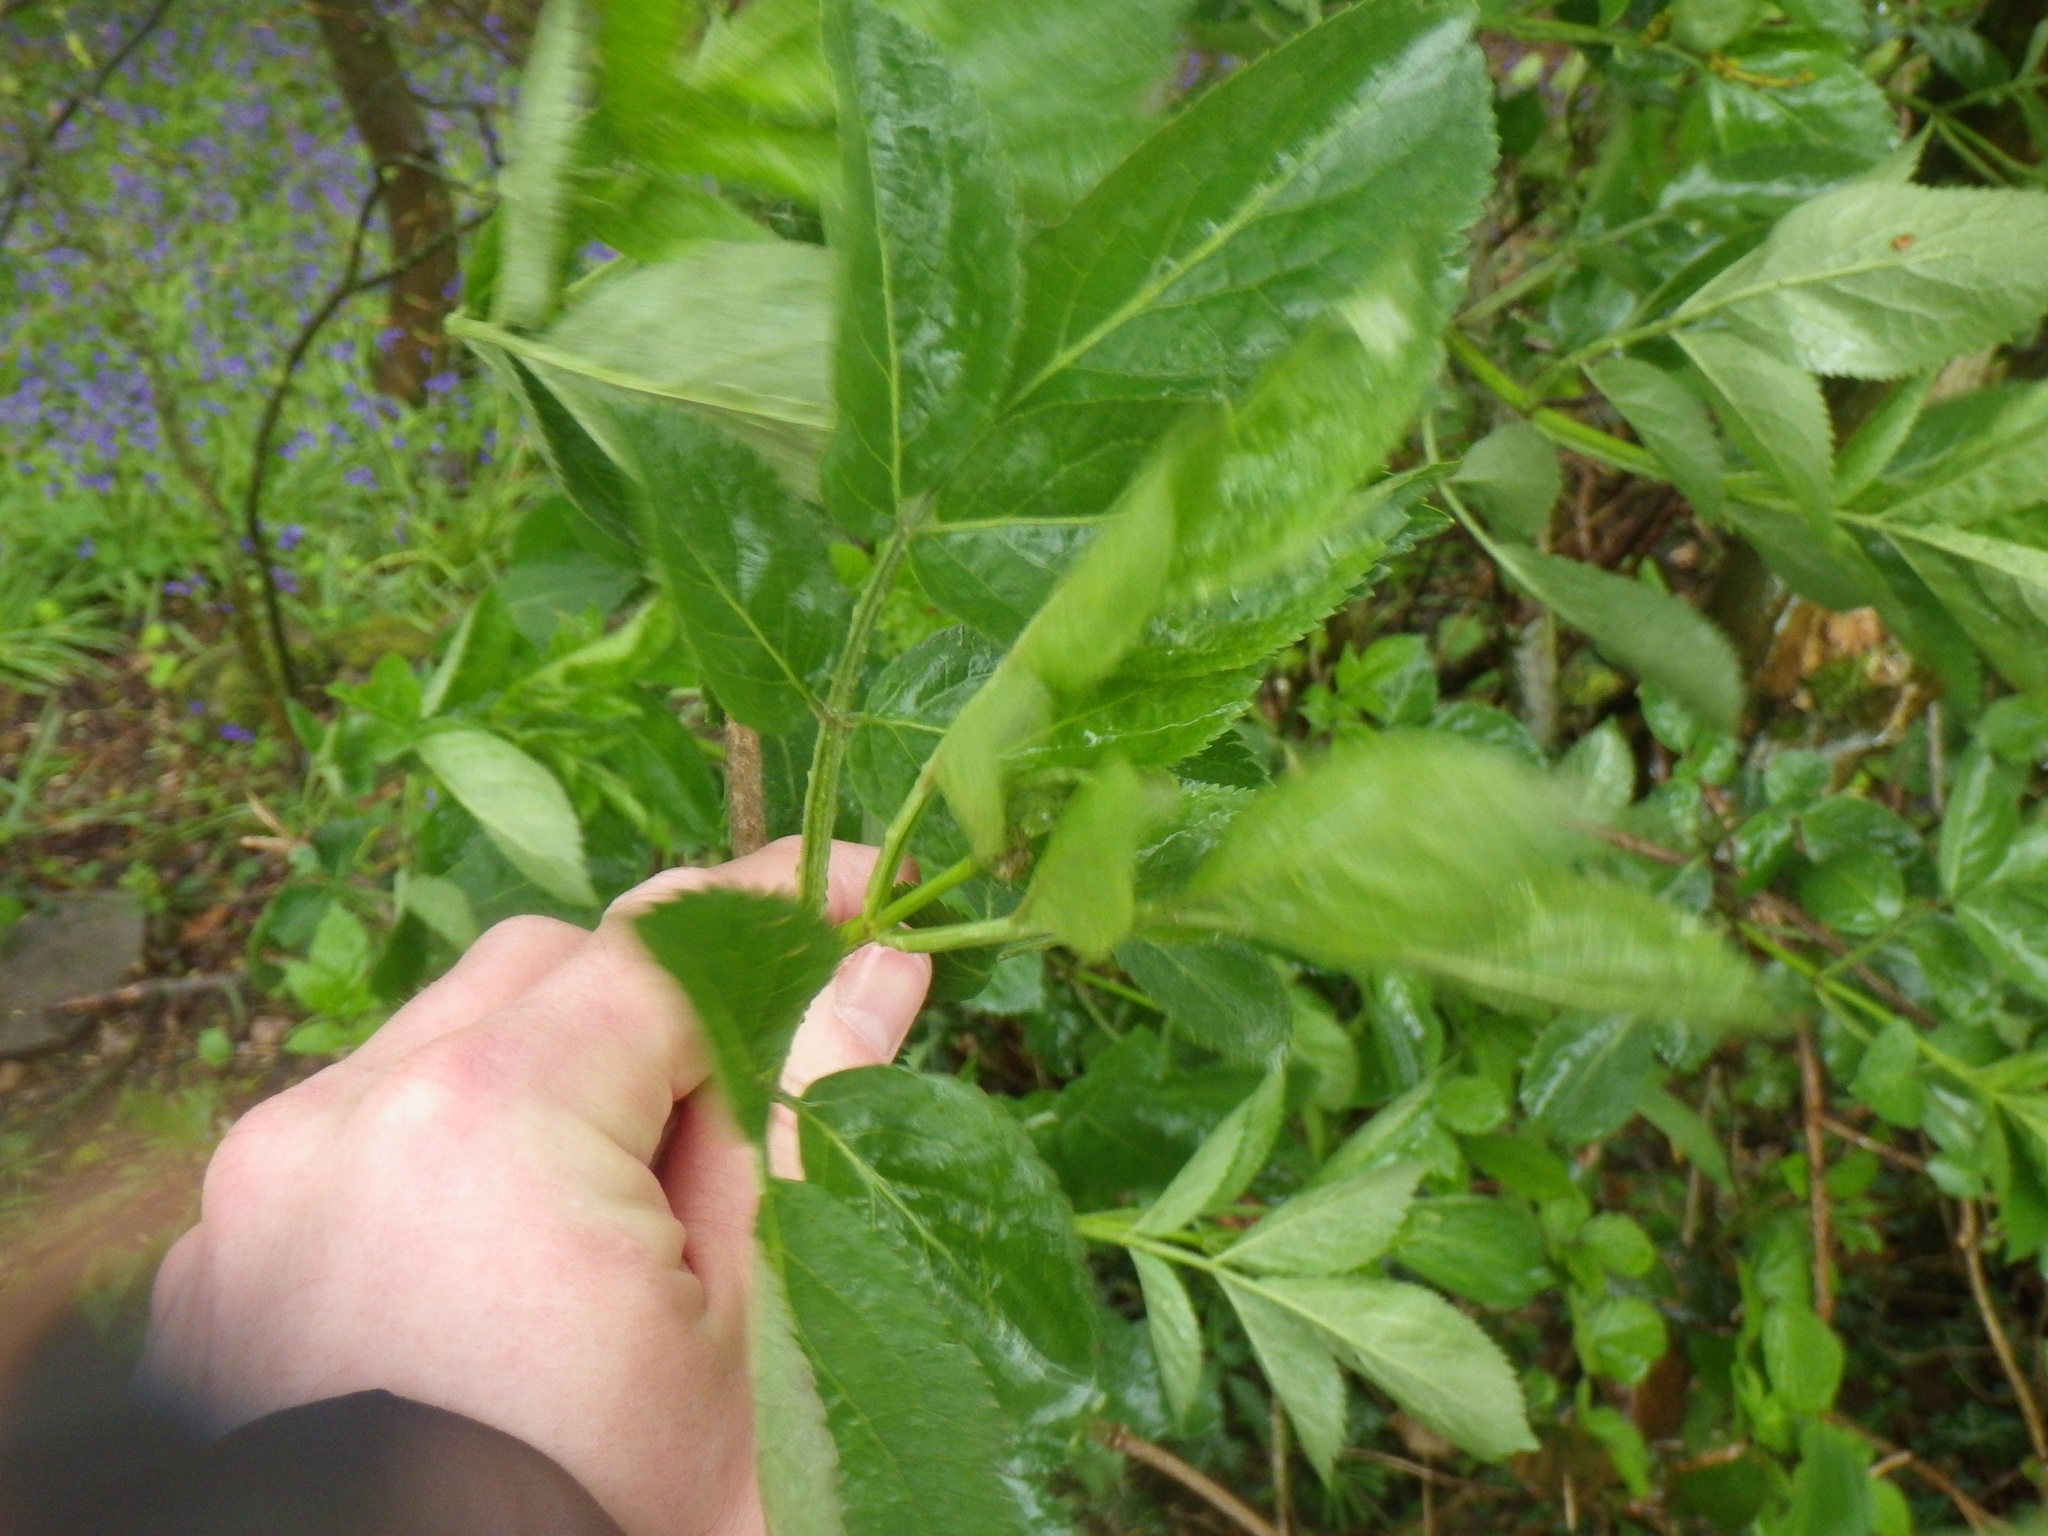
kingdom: Plantae
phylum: Tracheophyta
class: Magnoliopsida
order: Dipsacales
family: Viburnaceae
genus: Sambucus
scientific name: Sambucus nigra
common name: Elder
